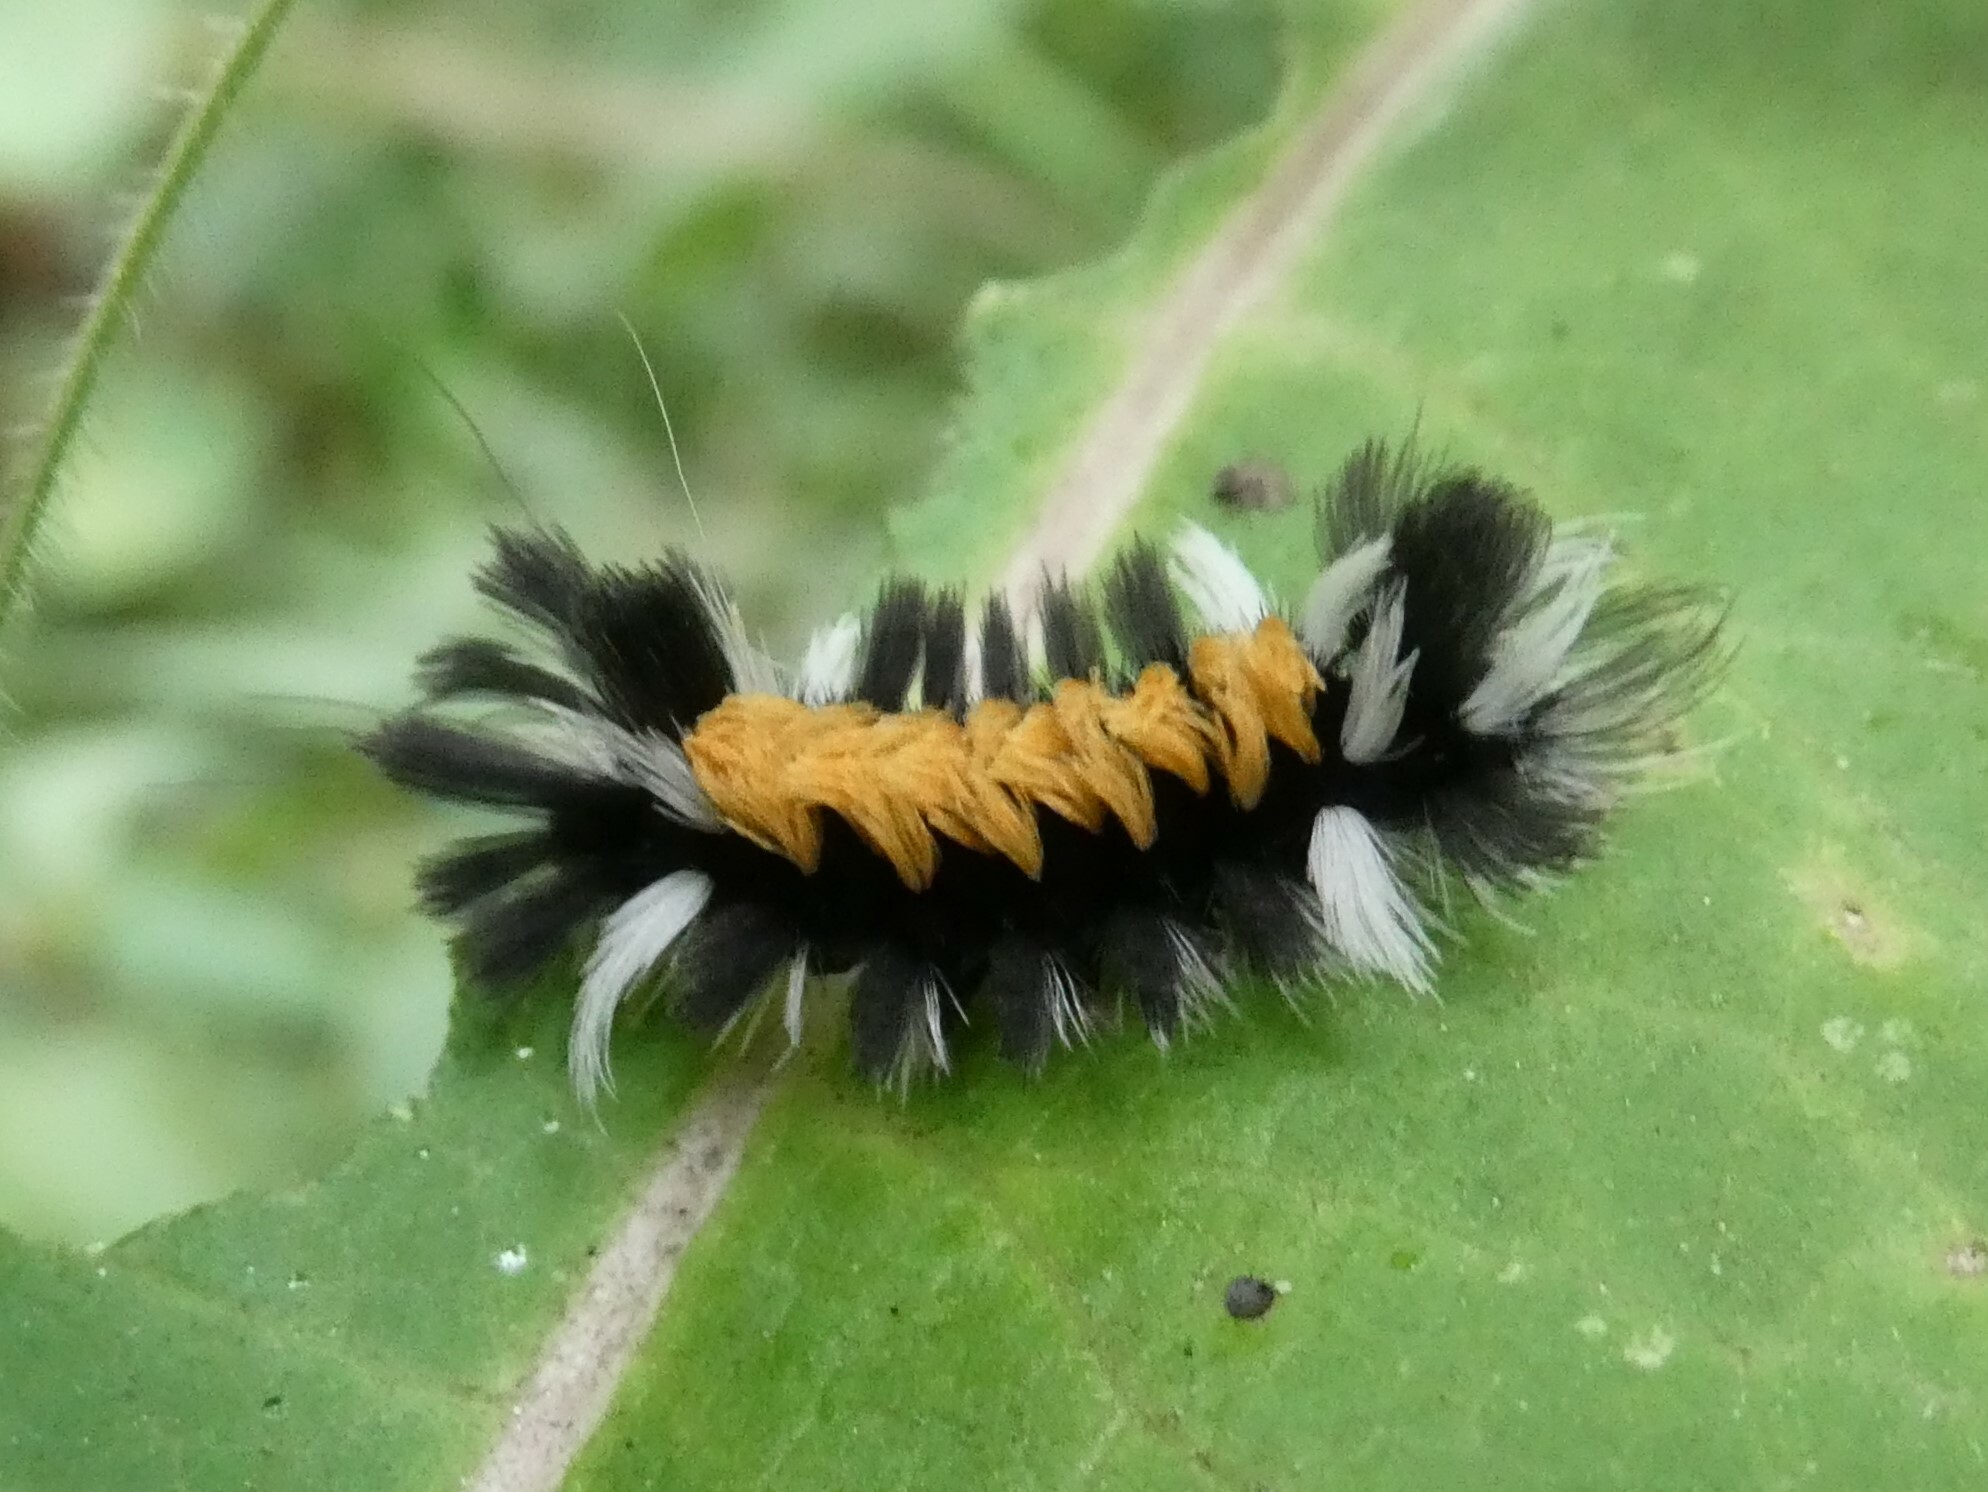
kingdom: Animalia
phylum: Arthropoda
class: Insecta
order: Lepidoptera
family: Erebidae
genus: Euchaetes
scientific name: Euchaetes egle
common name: Milkweed tussock moth
